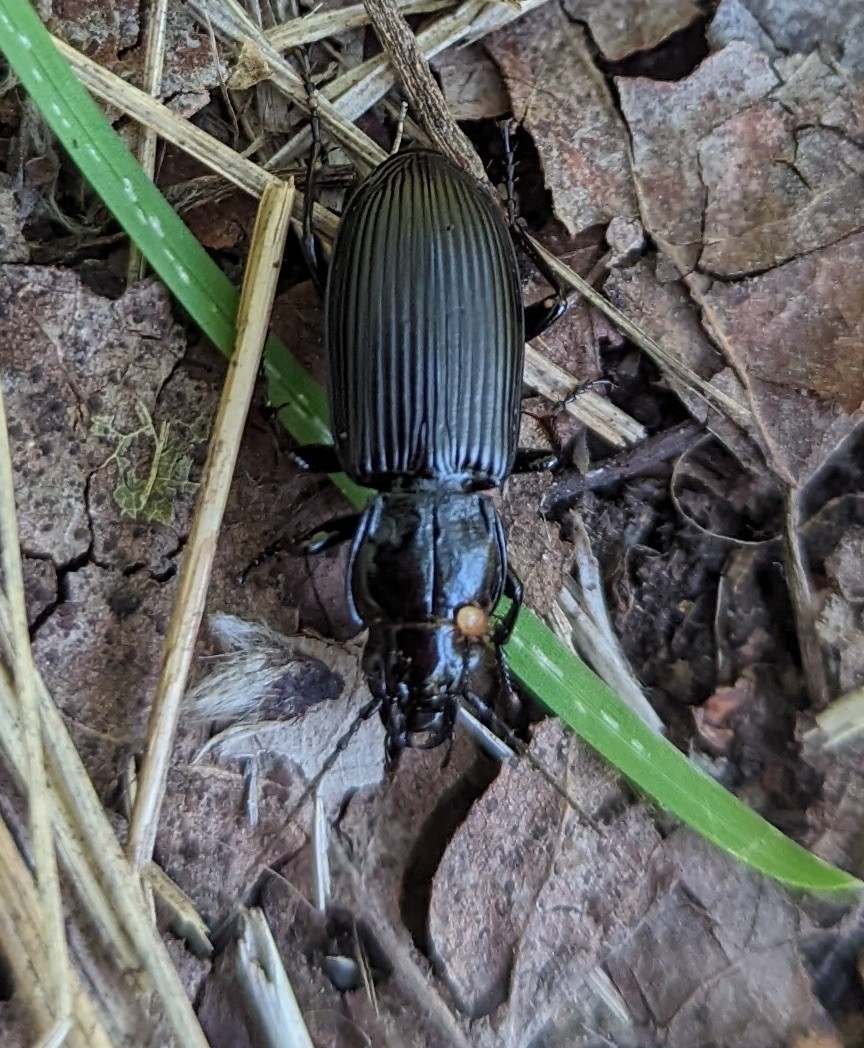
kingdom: Animalia
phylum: Arthropoda
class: Insecta
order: Coleoptera
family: Carabidae
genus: Pterostichus
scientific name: Pterostichus melanarius
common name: European dark harp ground beetle
